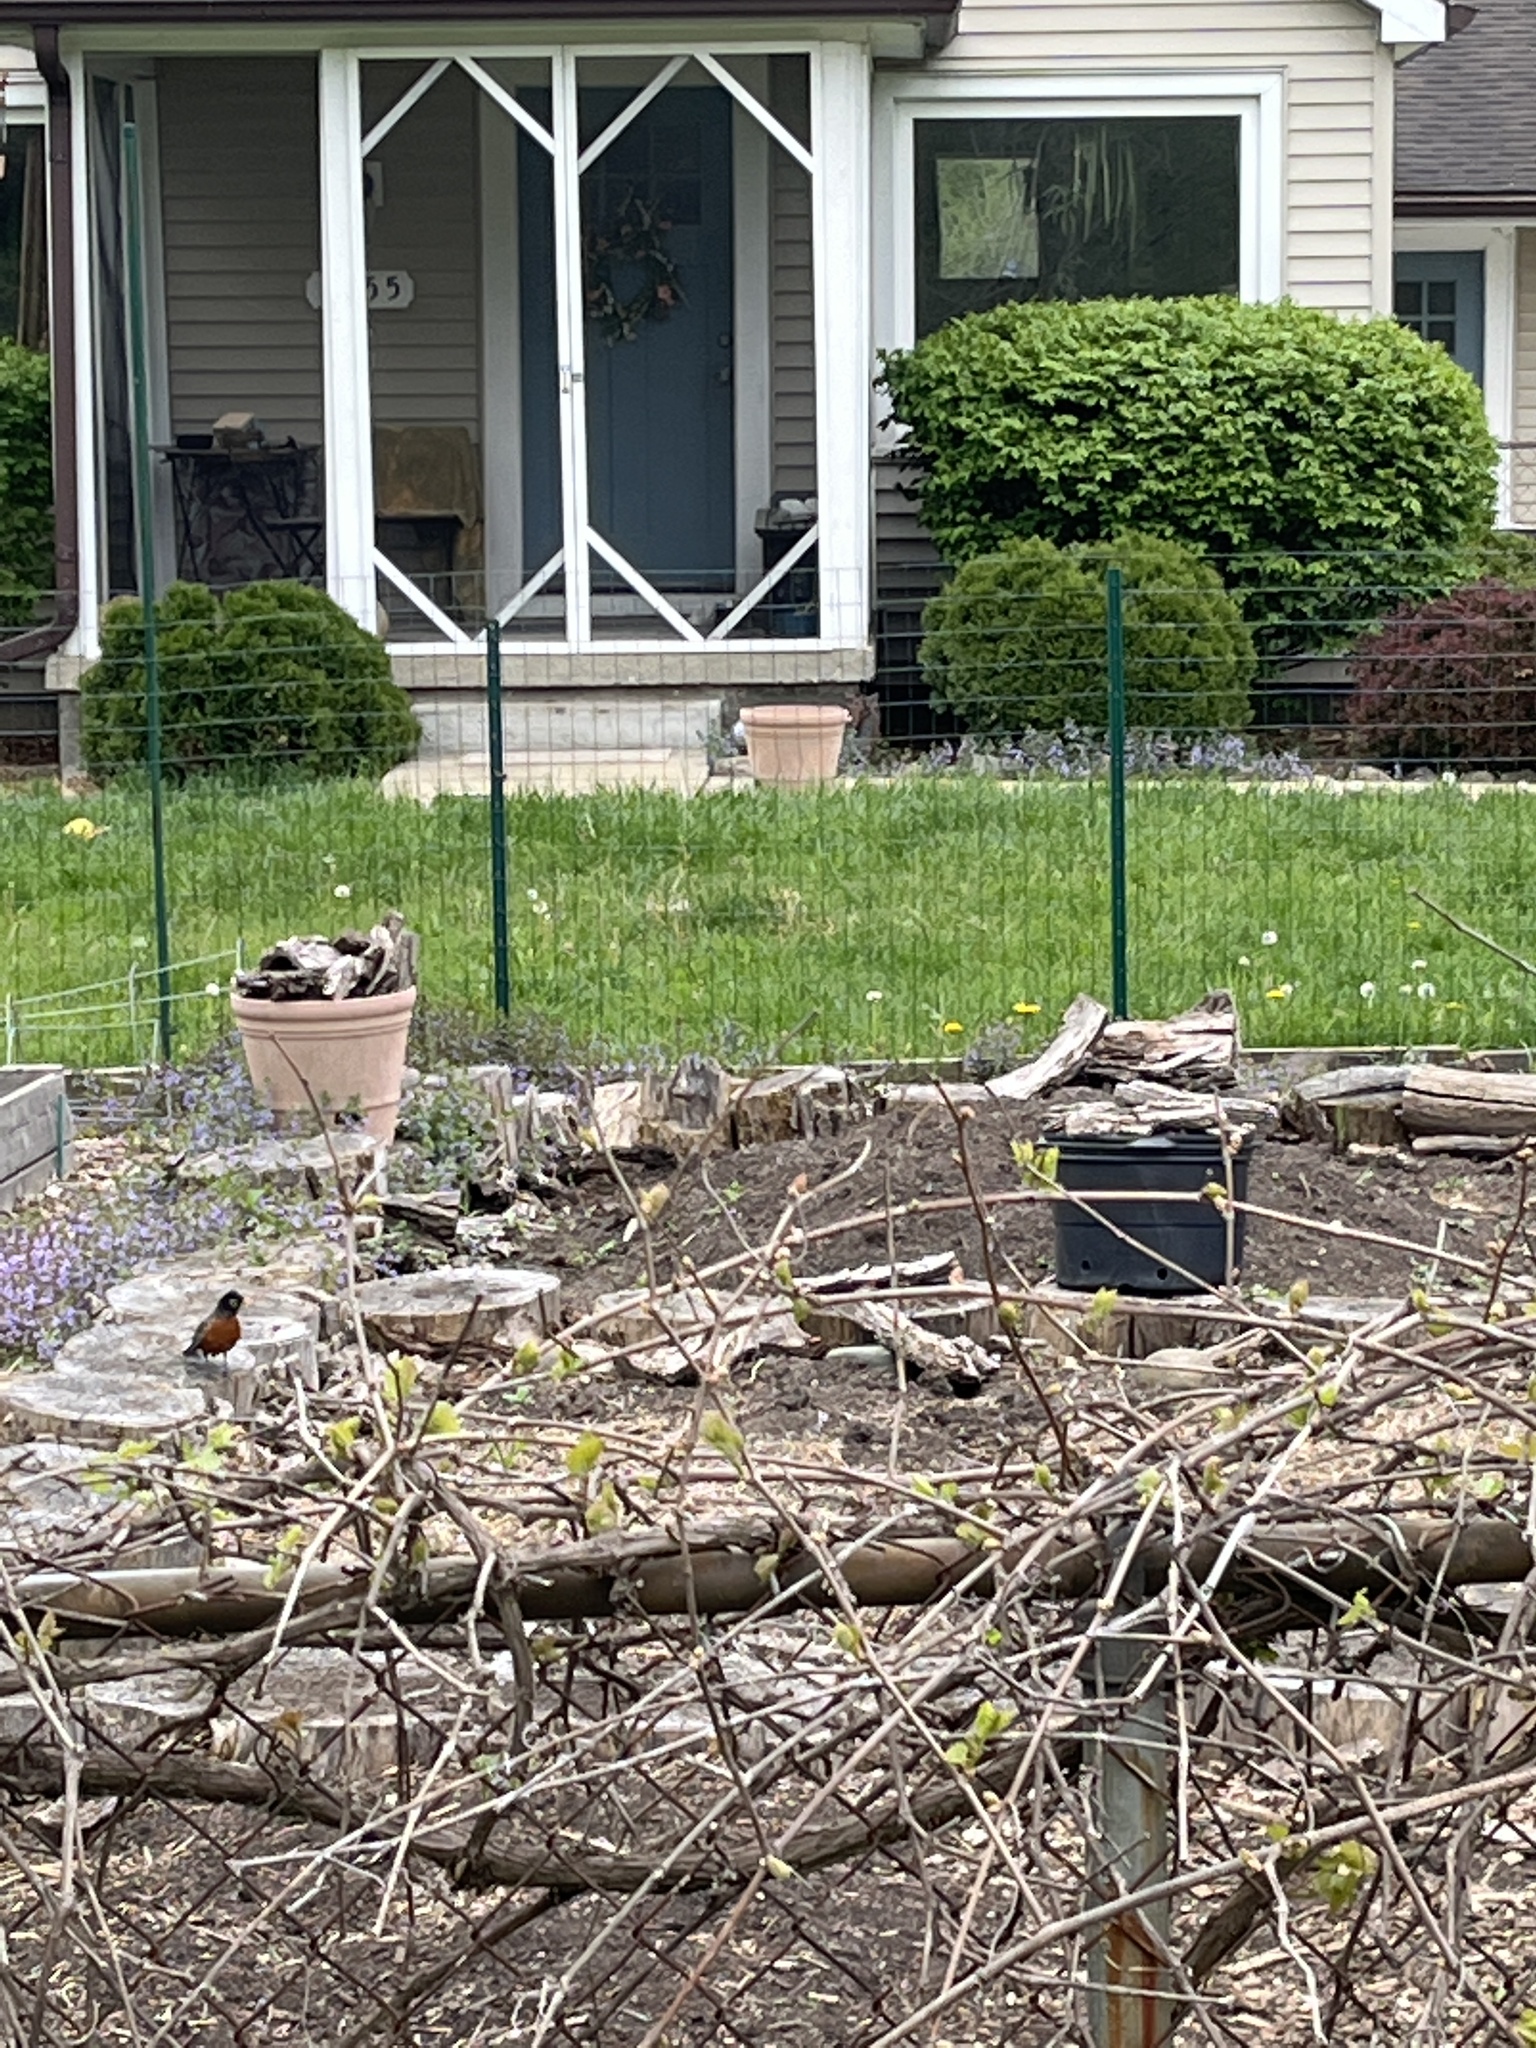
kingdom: Animalia
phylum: Chordata
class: Aves
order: Passeriformes
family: Turdidae
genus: Turdus
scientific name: Turdus migratorius
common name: American robin
